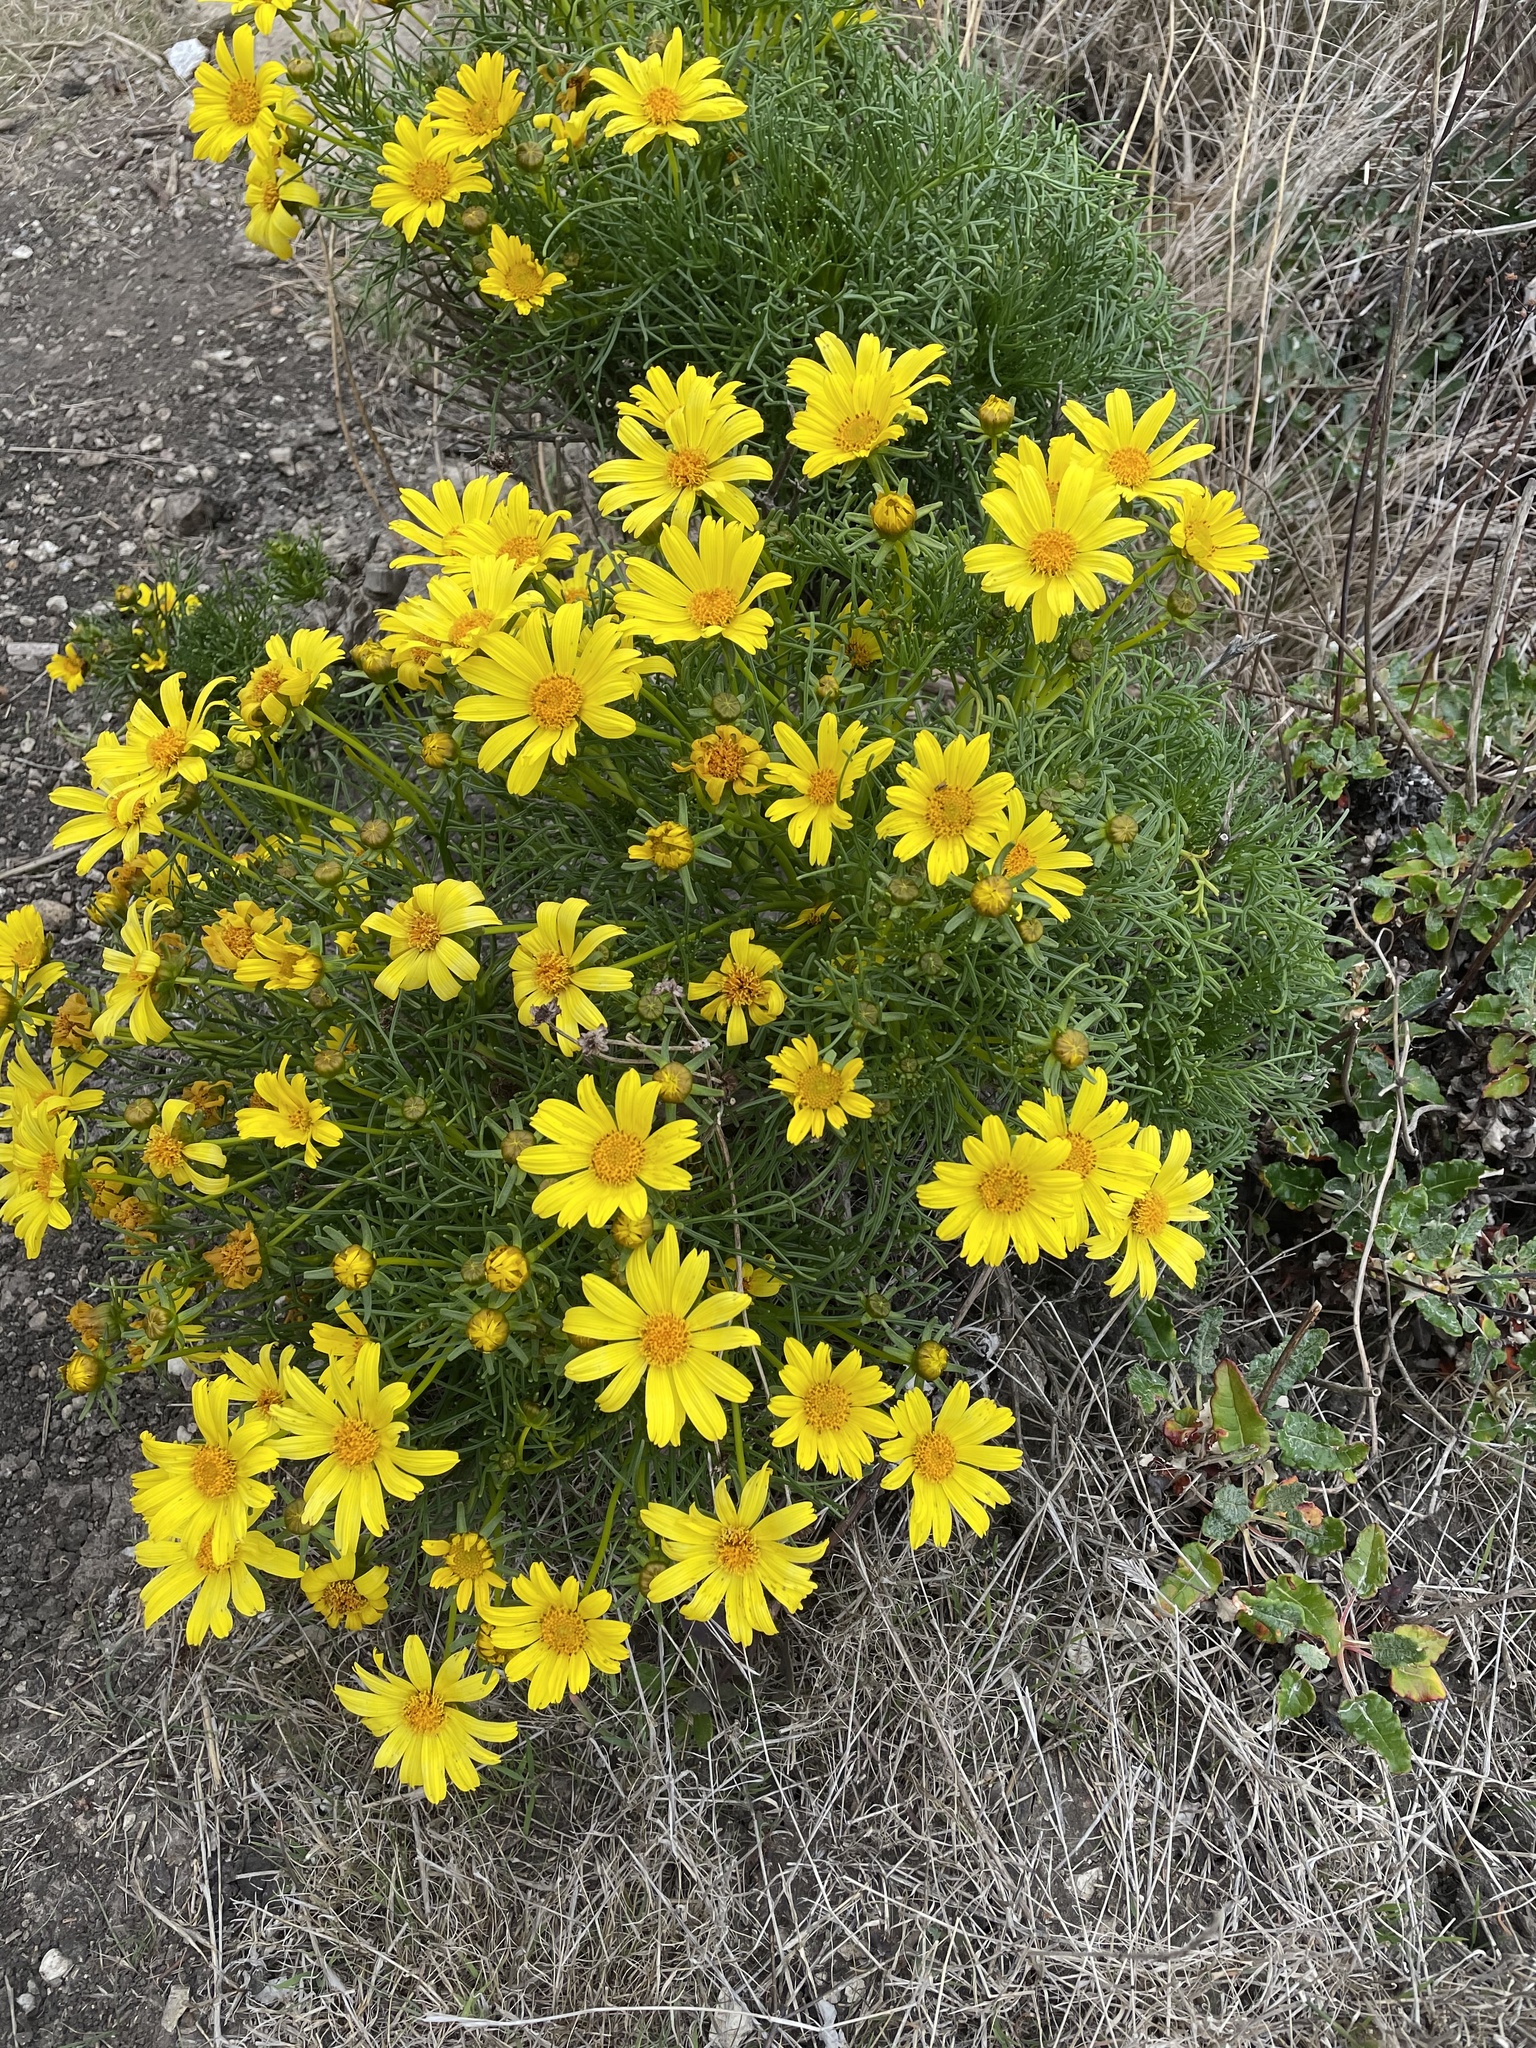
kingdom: Plantae
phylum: Tracheophyta
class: Magnoliopsida
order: Asterales
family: Asteraceae
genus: Coreopsis
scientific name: Coreopsis gigantea
